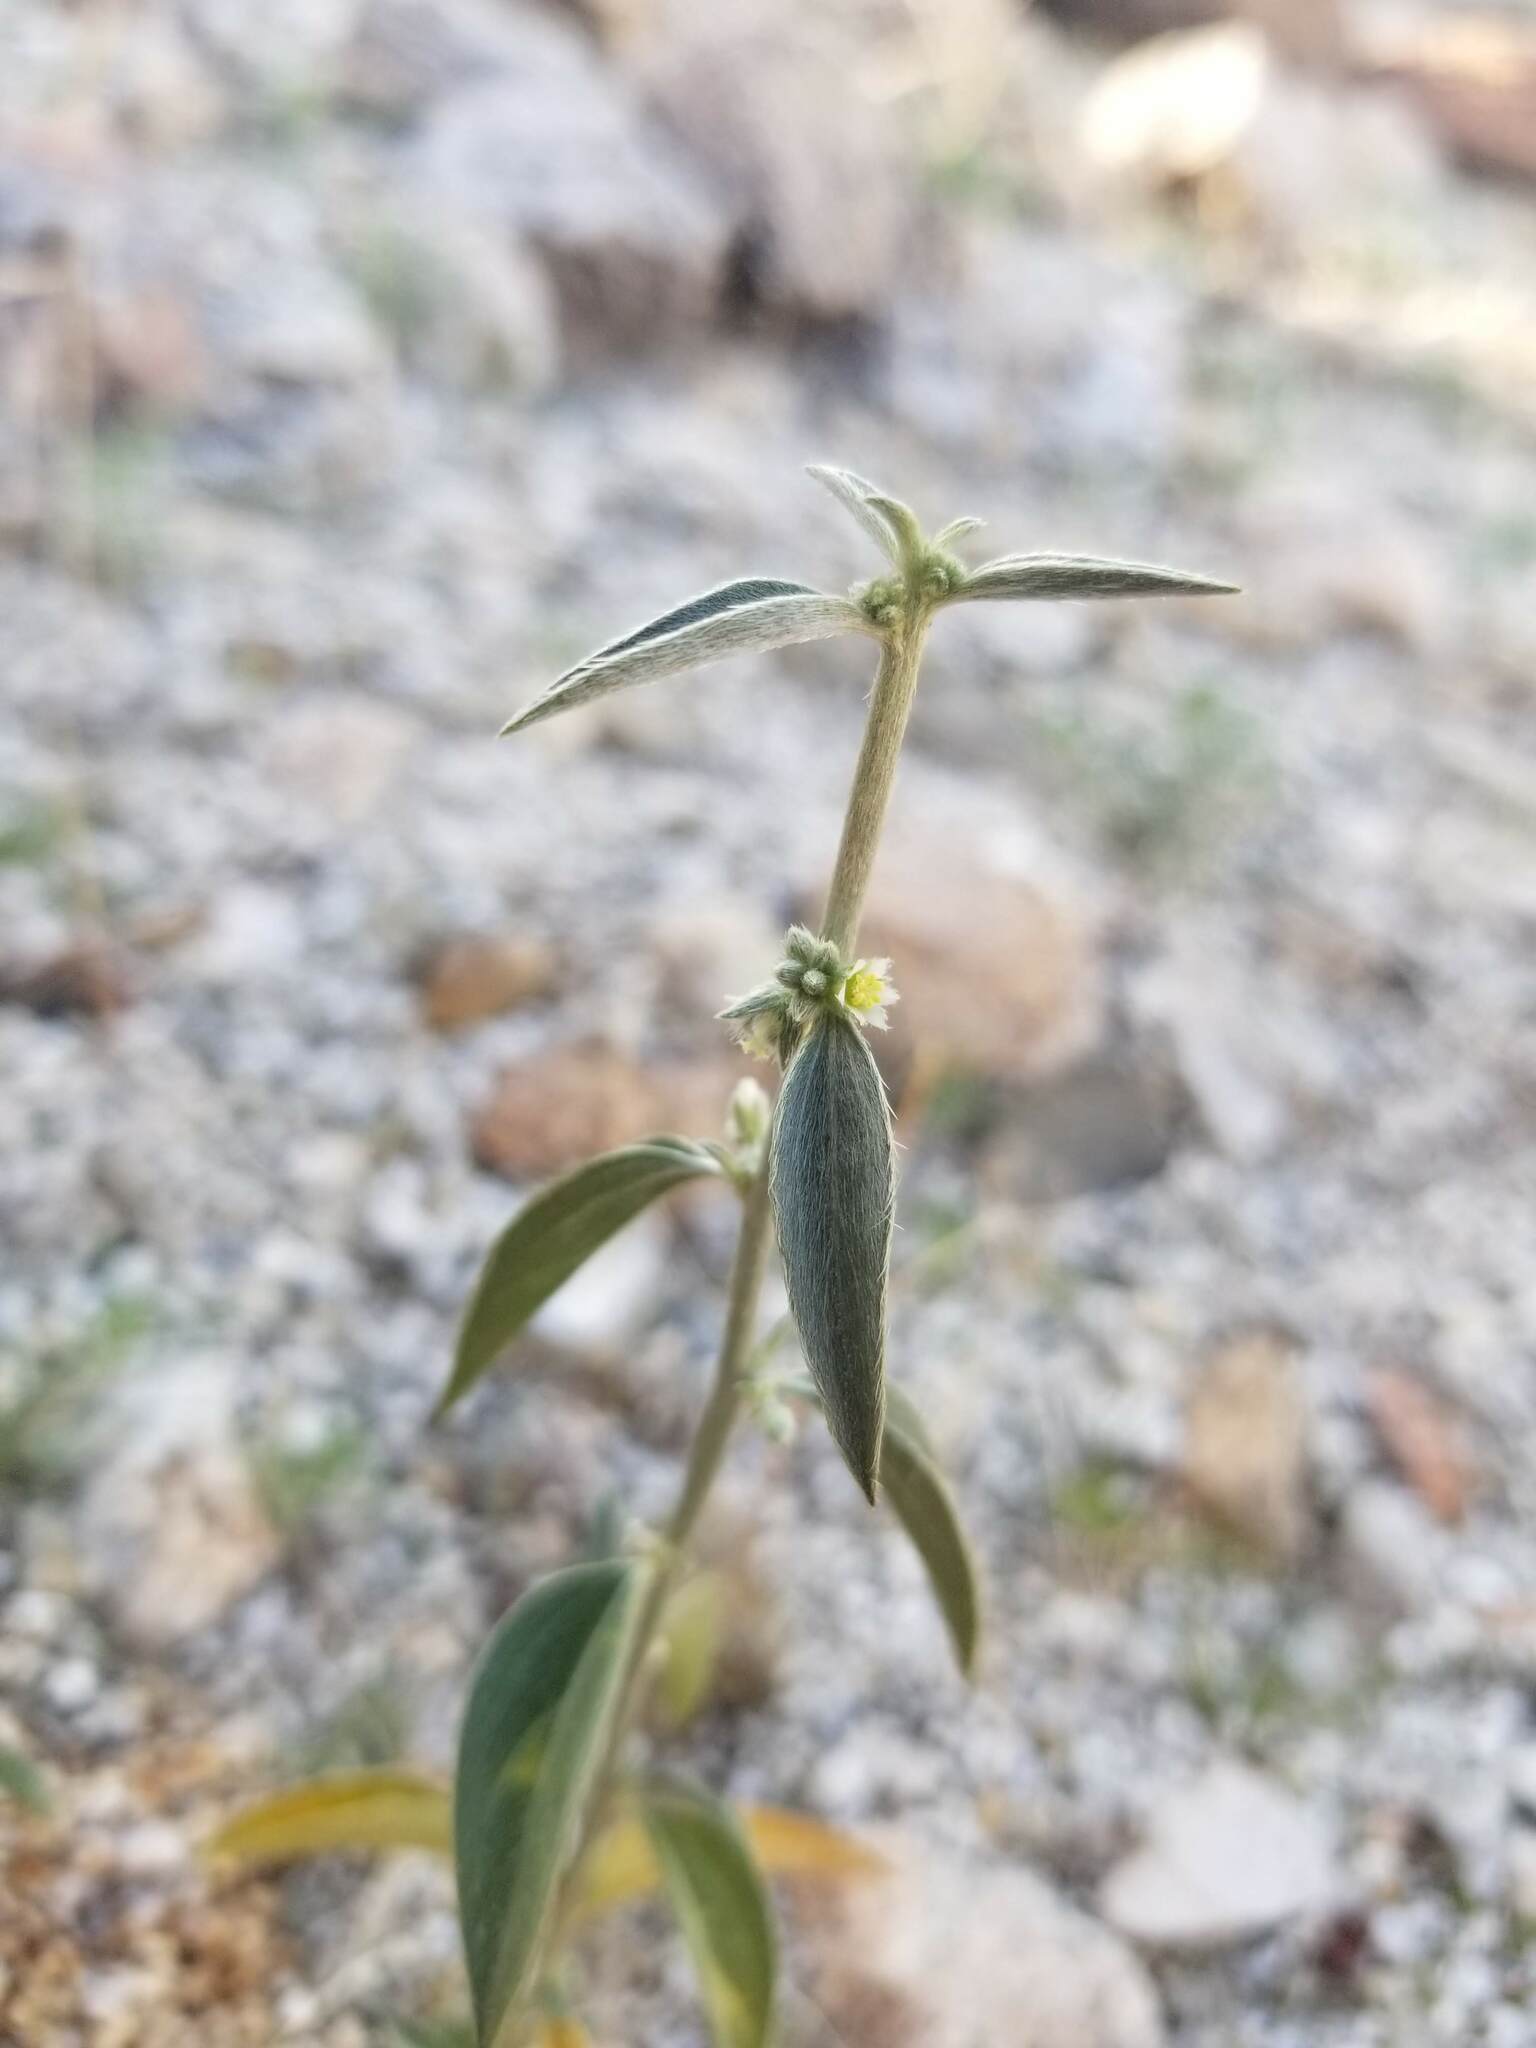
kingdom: Plantae
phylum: Tracheophyta
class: Magnoliopsida
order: Malpighiales
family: Euphorbiaceae
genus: Ditaxis
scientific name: Ditaxis lanceolata
